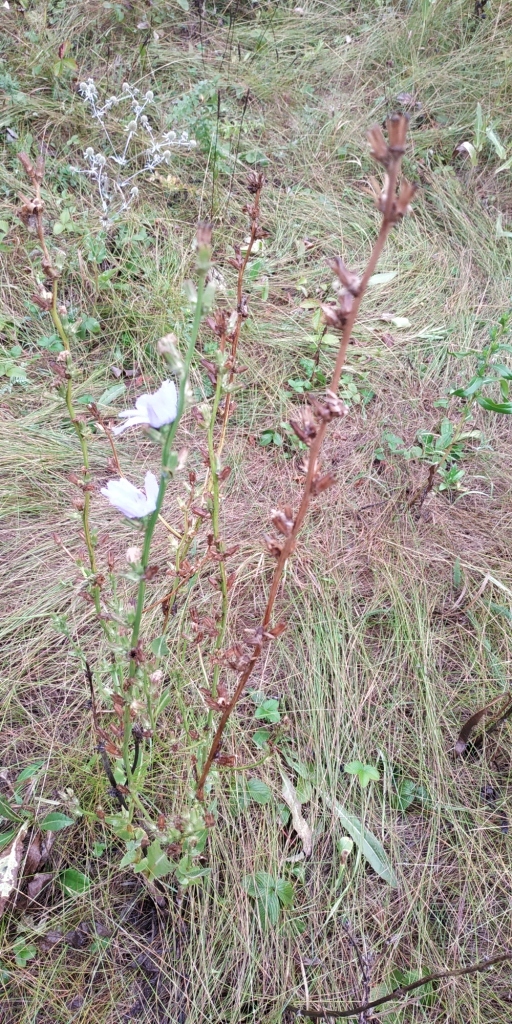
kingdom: Plantae
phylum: Tracheophyta
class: Magnoliopsida
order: Asterales
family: Asteraceae
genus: Cichorium
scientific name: Cichorium intybus
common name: Chicory
